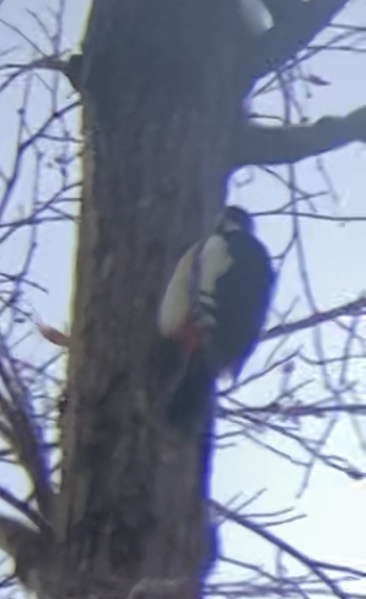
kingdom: Animalia
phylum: Chordata
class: Aves
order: Piciformes
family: Picidae
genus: Dendrocopos
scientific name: Dendrocopos major
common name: Great spotted woodpecker
